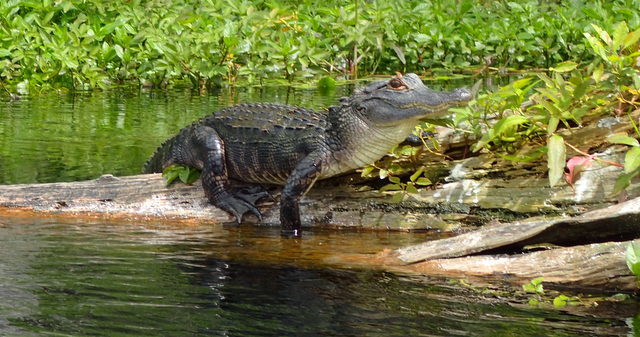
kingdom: Animalia
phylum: Chordata
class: Crocodylia
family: Alligatoridae
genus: Alligator
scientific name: Alligator mississippiensis
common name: American alligator
